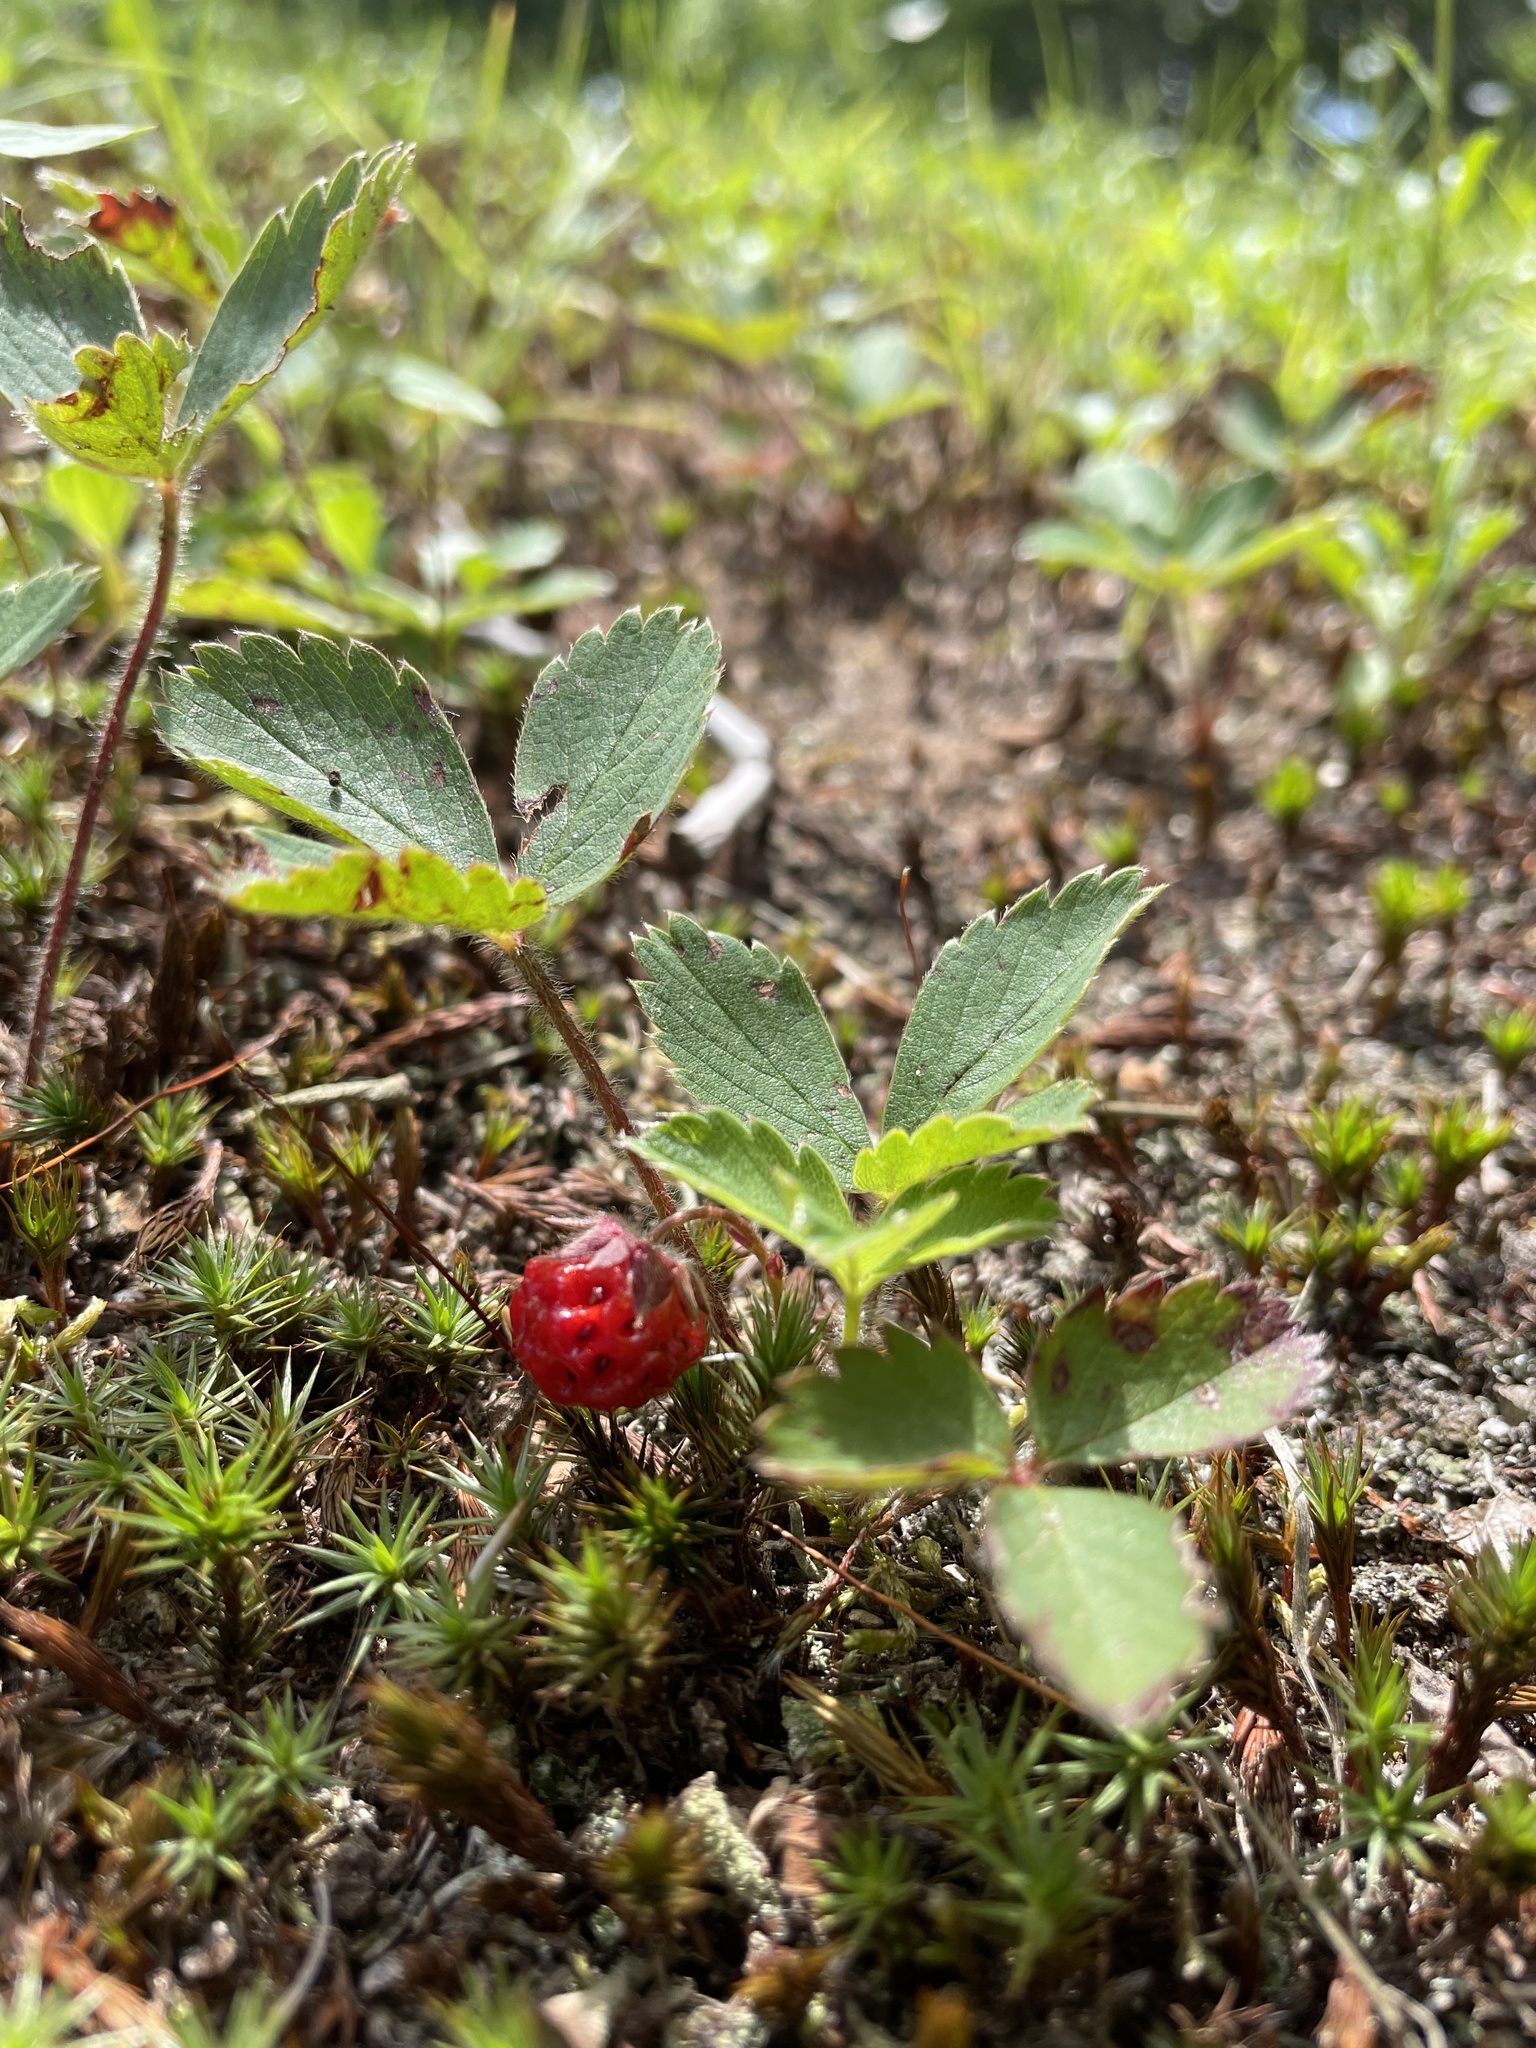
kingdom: Plantae
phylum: Tracheophyta
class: Magnoliopsida
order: Rosales
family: Rosaceae
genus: Fragaria
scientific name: Fragaria virginiana
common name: Thickleaved wild strawberry
